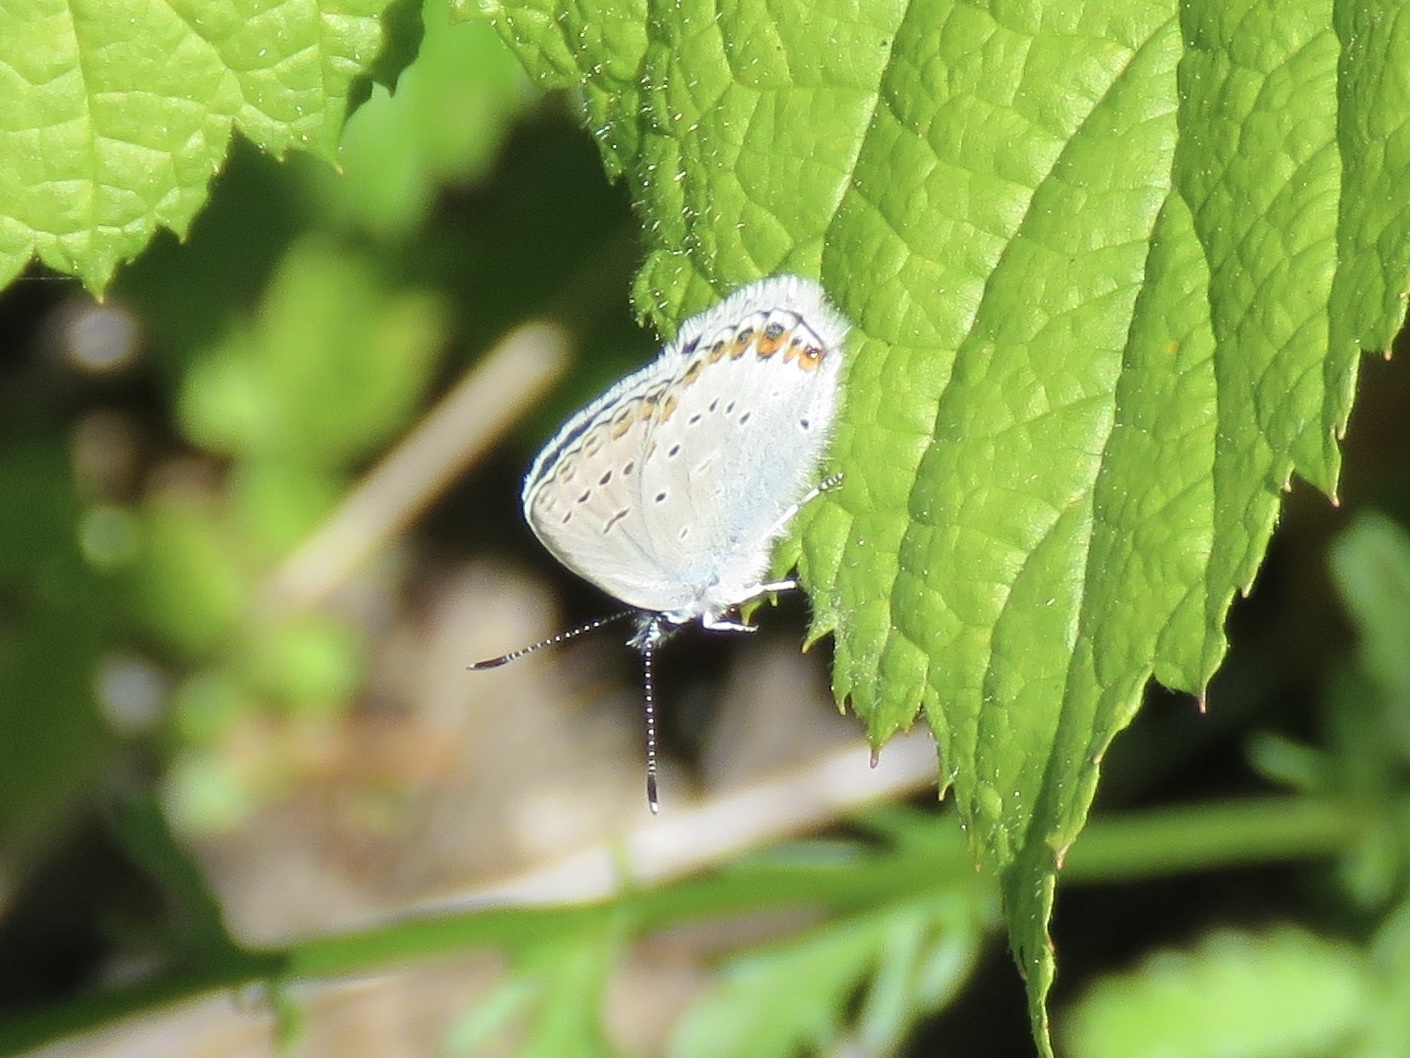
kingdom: Animalia
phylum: Arthropoda
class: Insecta
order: Lepidoptera
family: Lycaenidae
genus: Lycaeides
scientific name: Lycaeides idas
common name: Northern blue
